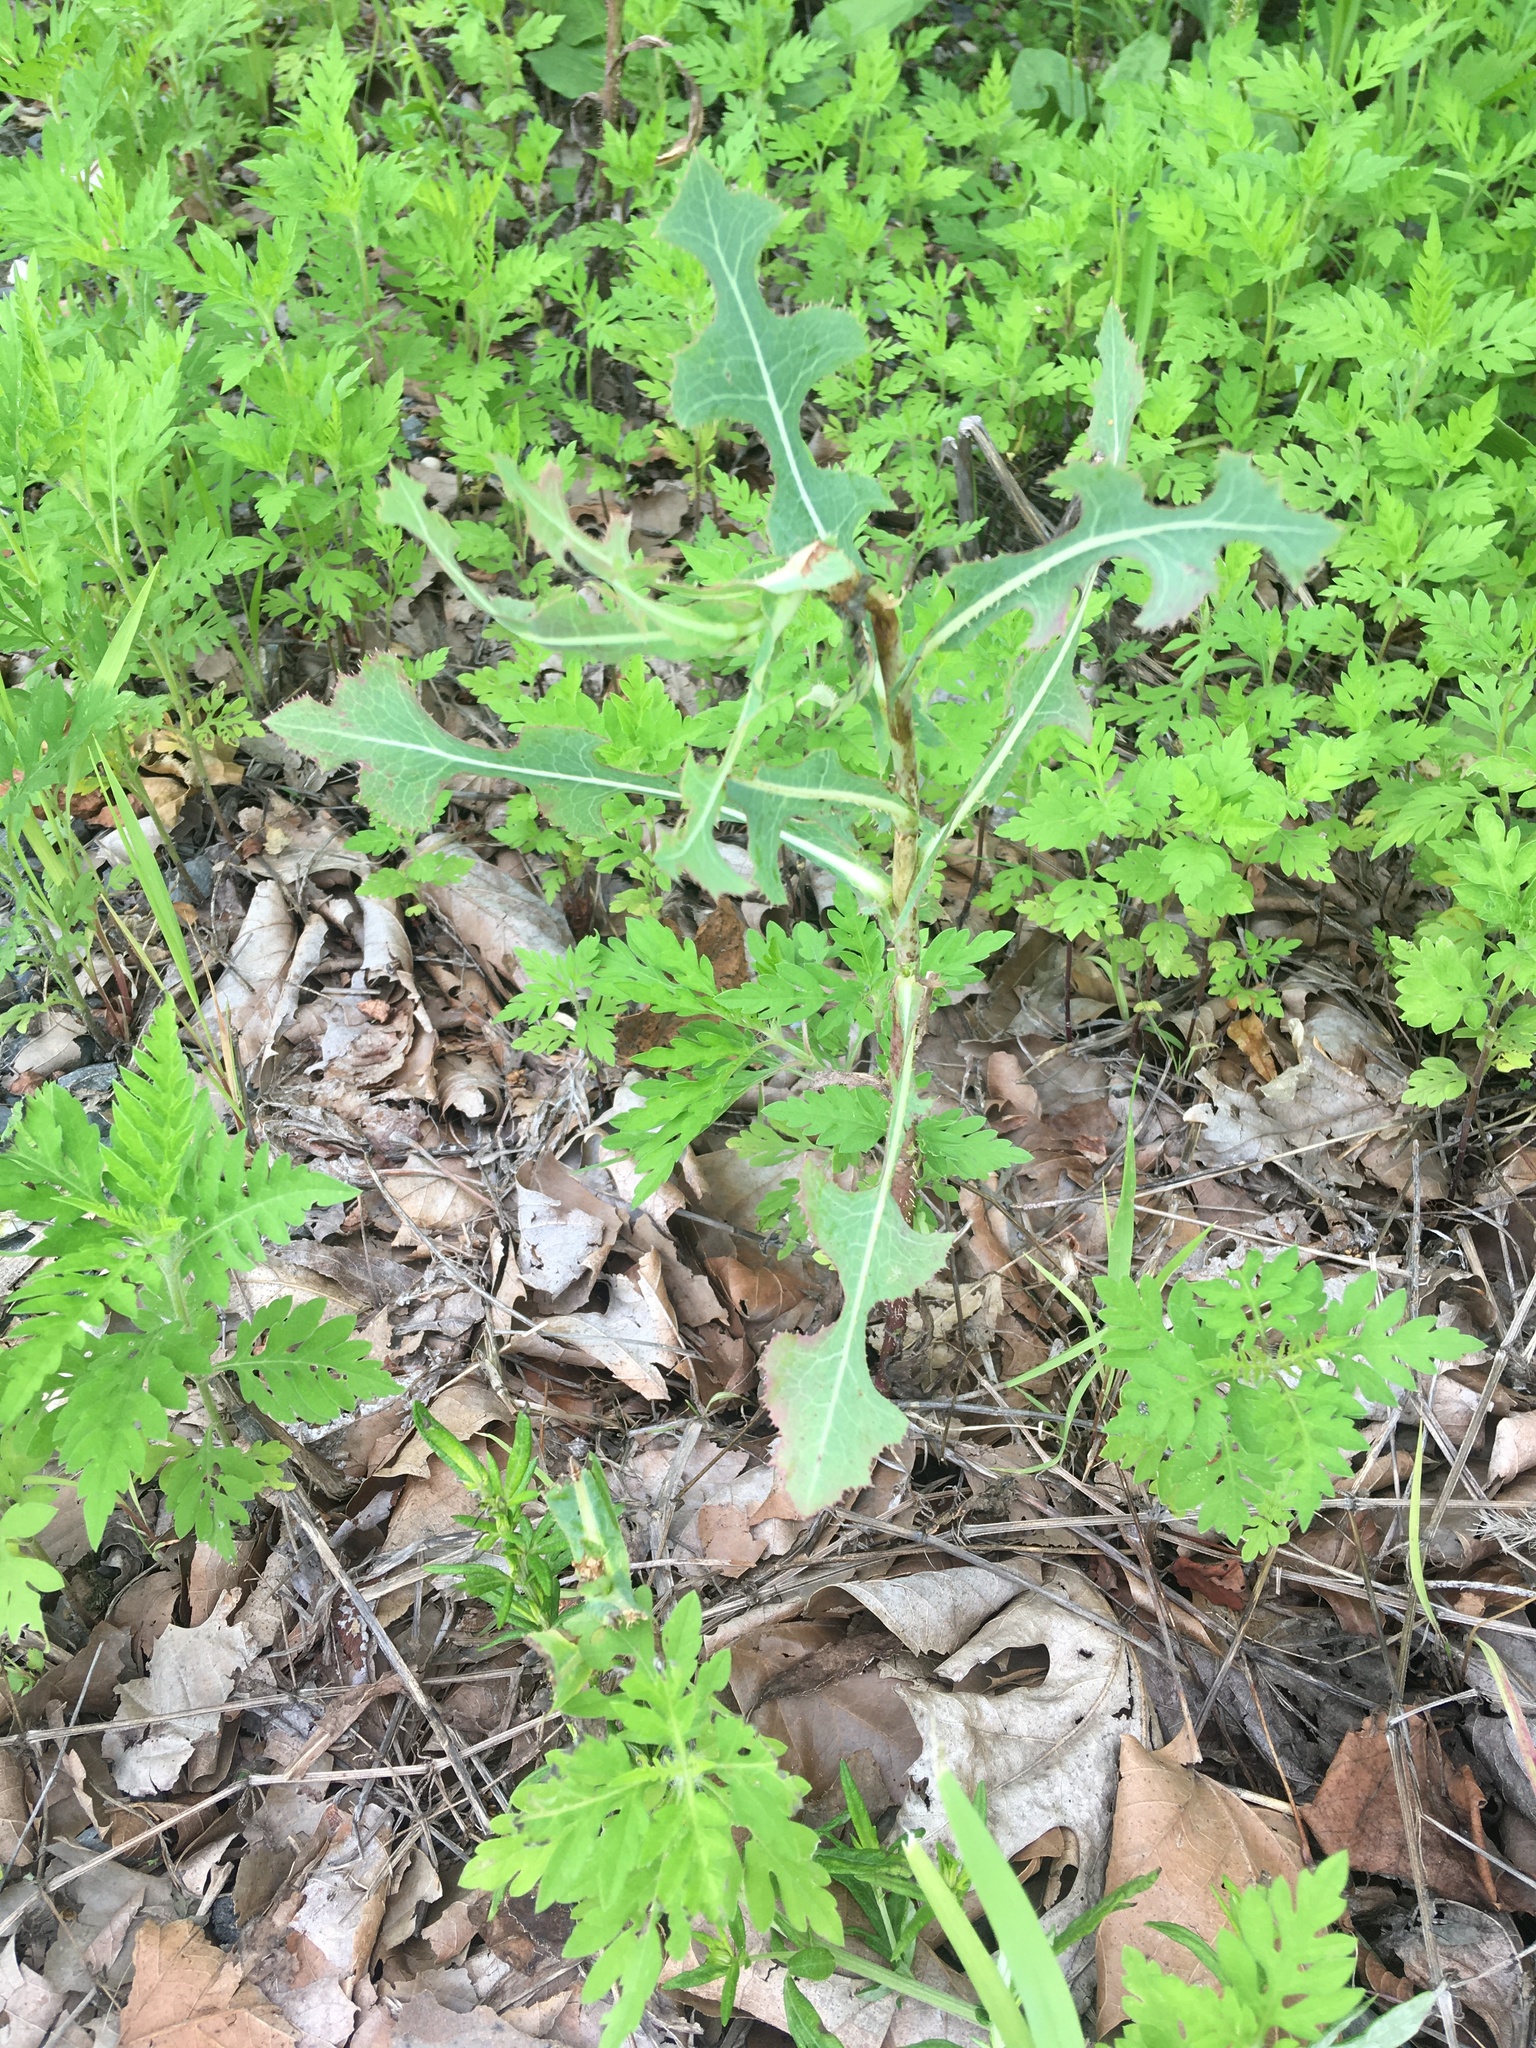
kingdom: Plantae
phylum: Tracheophyta
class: Magnoliopsida
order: Asterales
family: Asteraceae
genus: Lactuca
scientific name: Lactuca serriola
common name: Prickly lettuce
